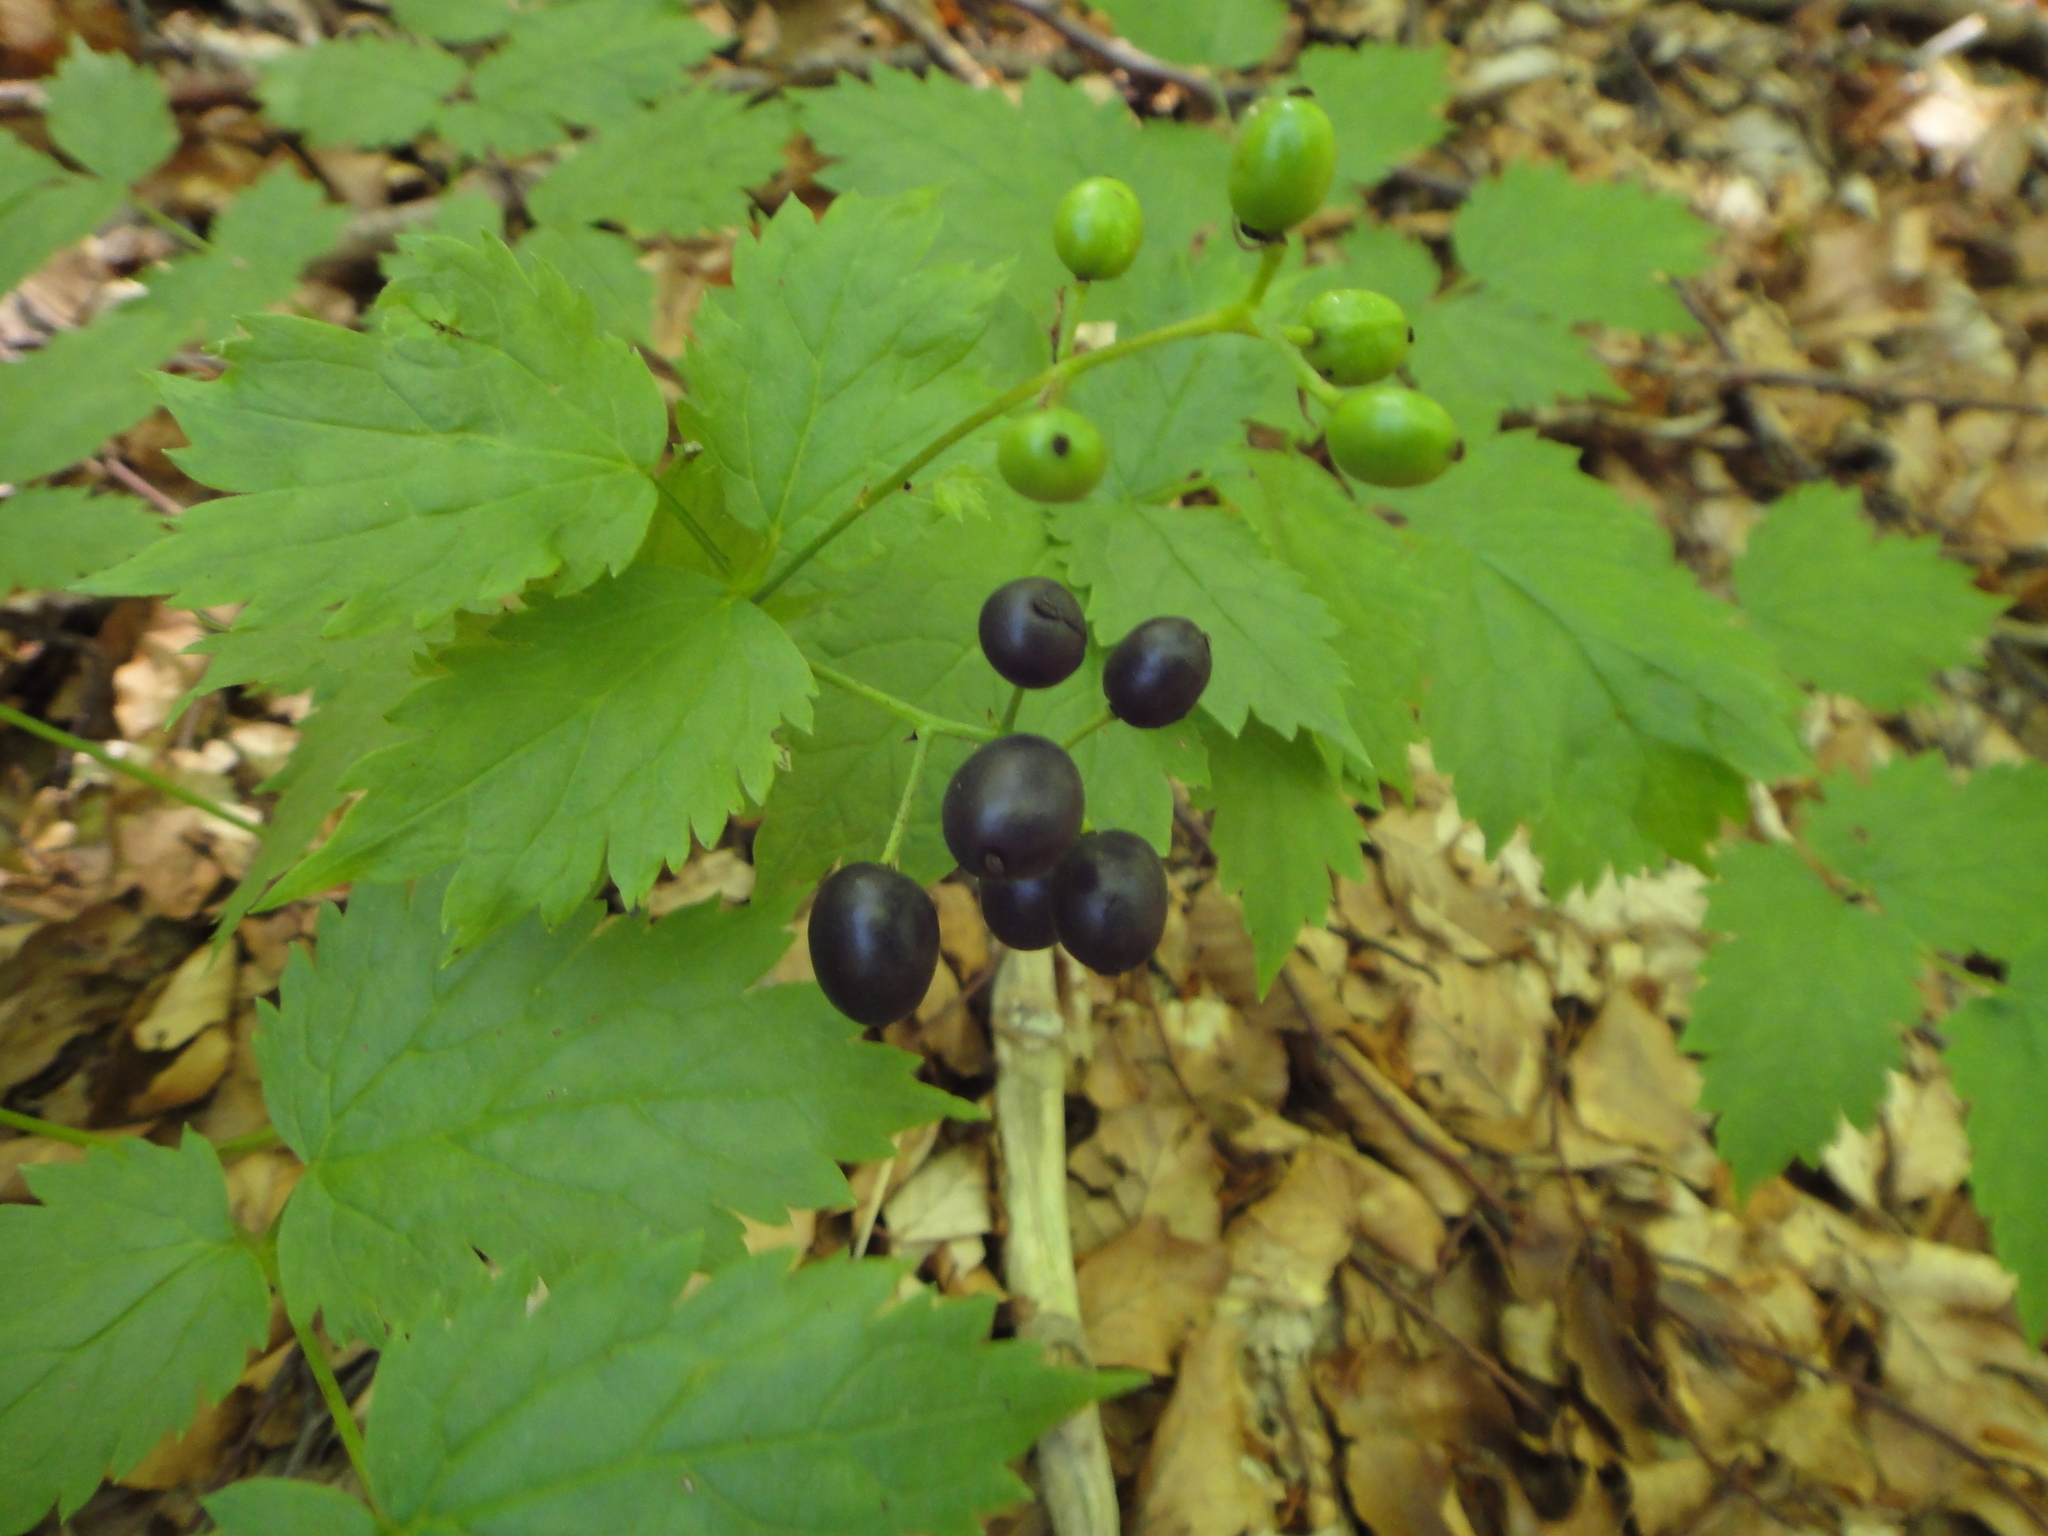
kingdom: Plantae
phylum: Tracheophyta
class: Magnoliopsida
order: Ranunculales
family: Ranunculaceae
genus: Actaea
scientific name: Actaea spicata
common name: Baneberry
